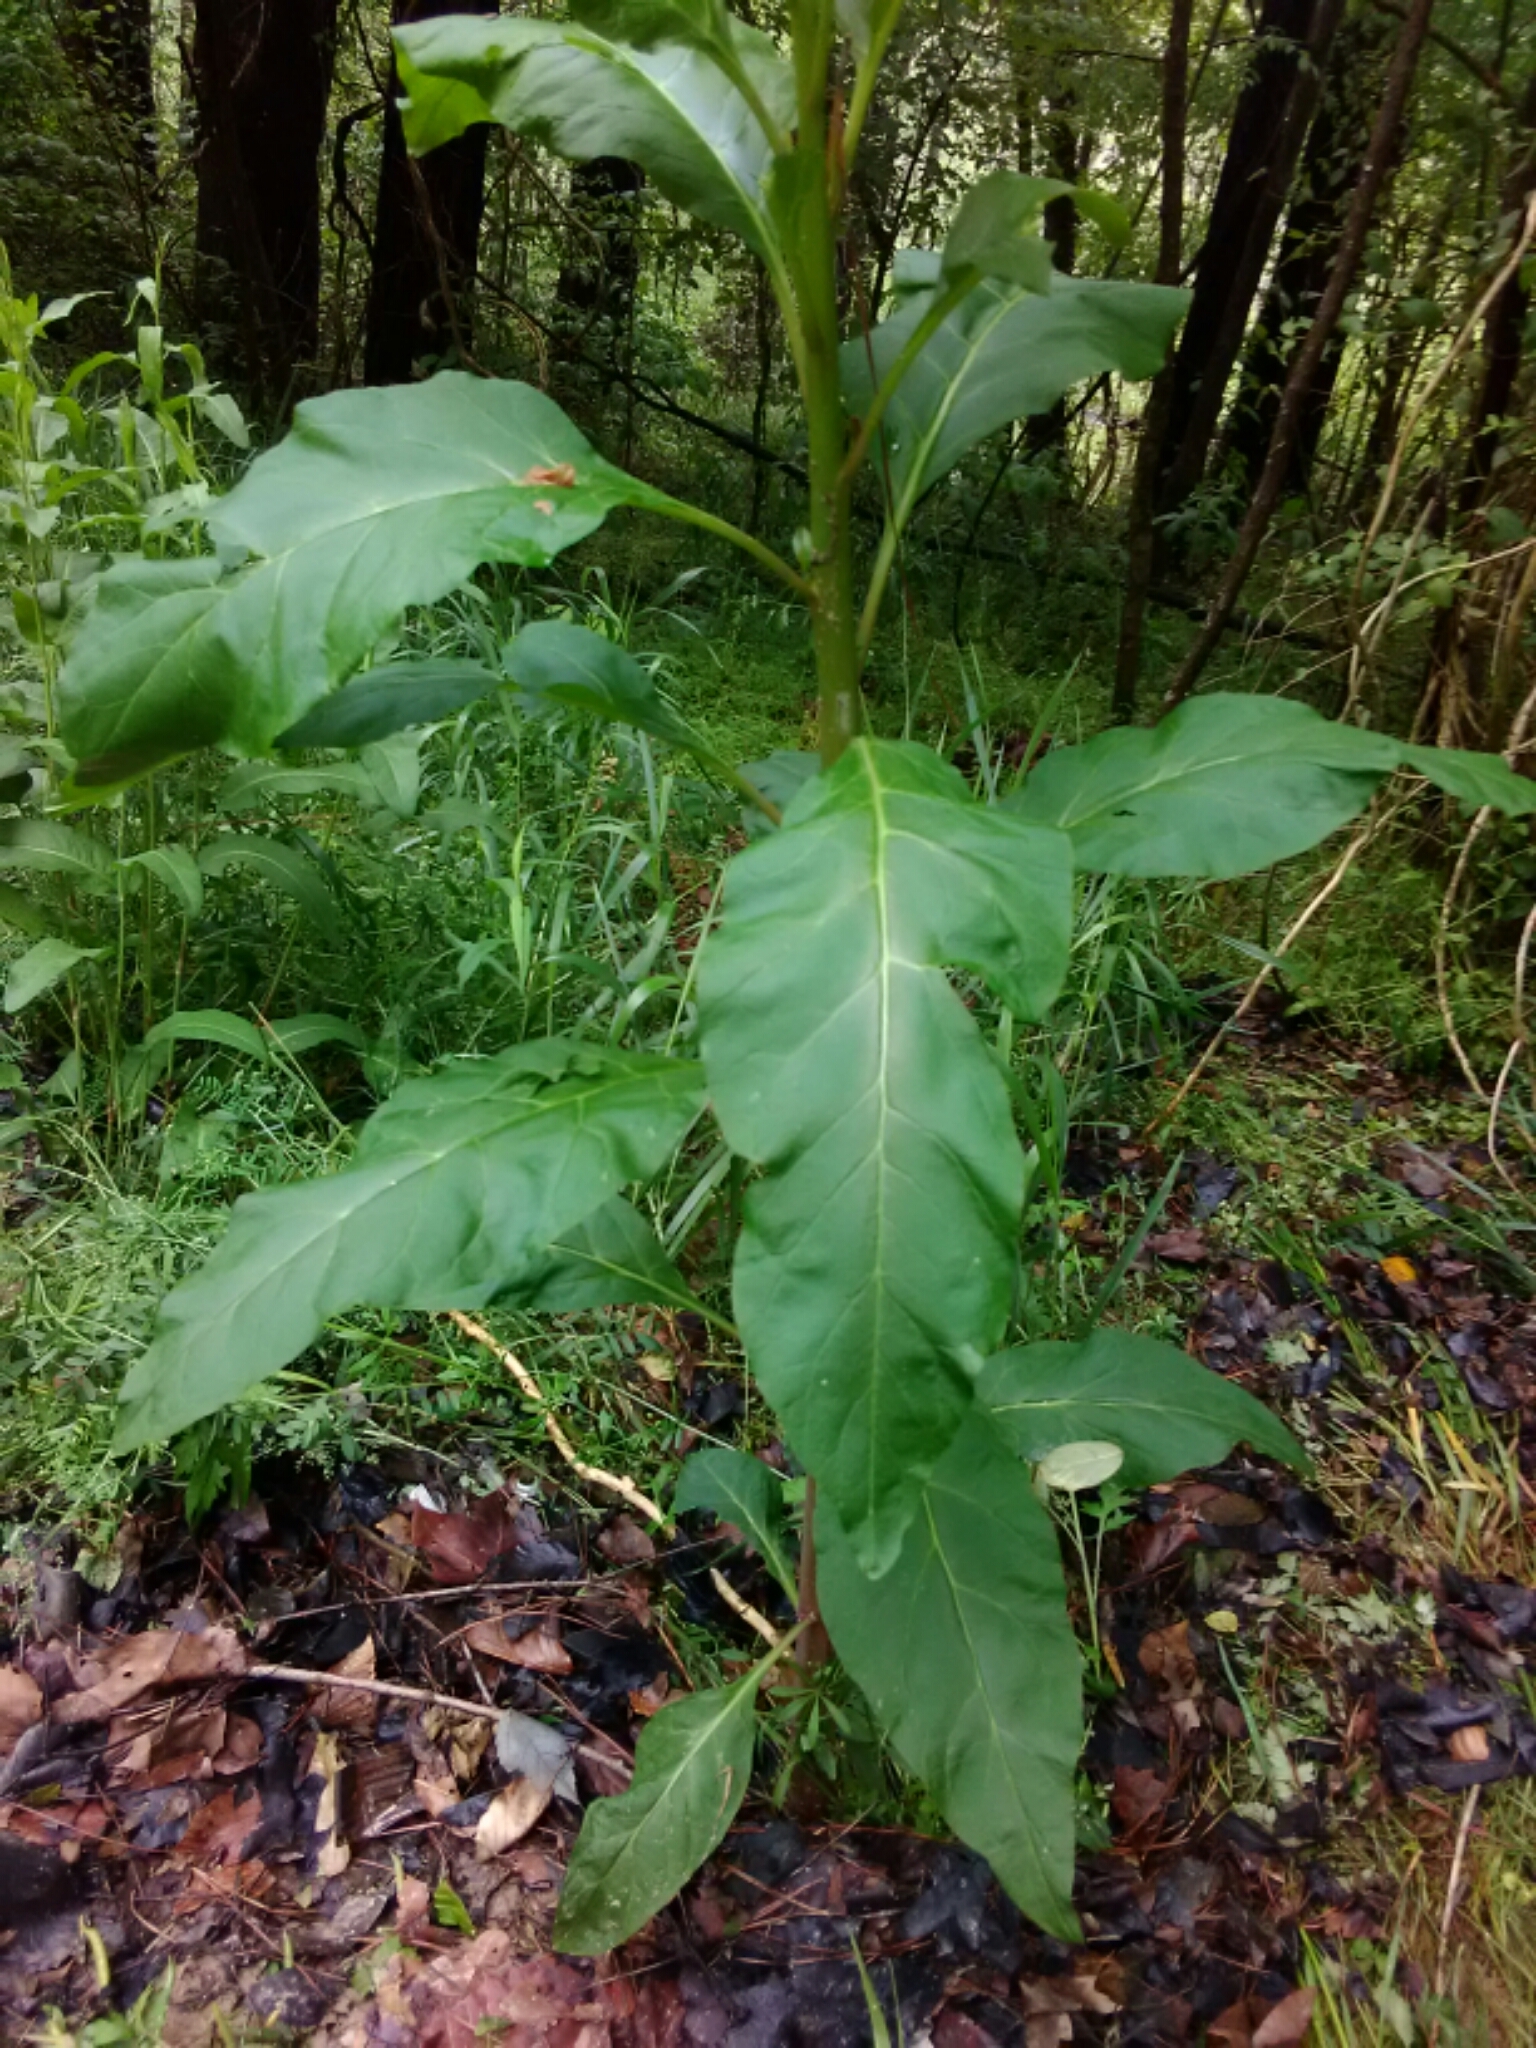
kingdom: Plantae
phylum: Tracheophyta
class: Magnoliopsida
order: Caryophyllales
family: Phytolaccaceae
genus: Phytolacca
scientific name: Phytolacca americana
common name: American pokeweed
